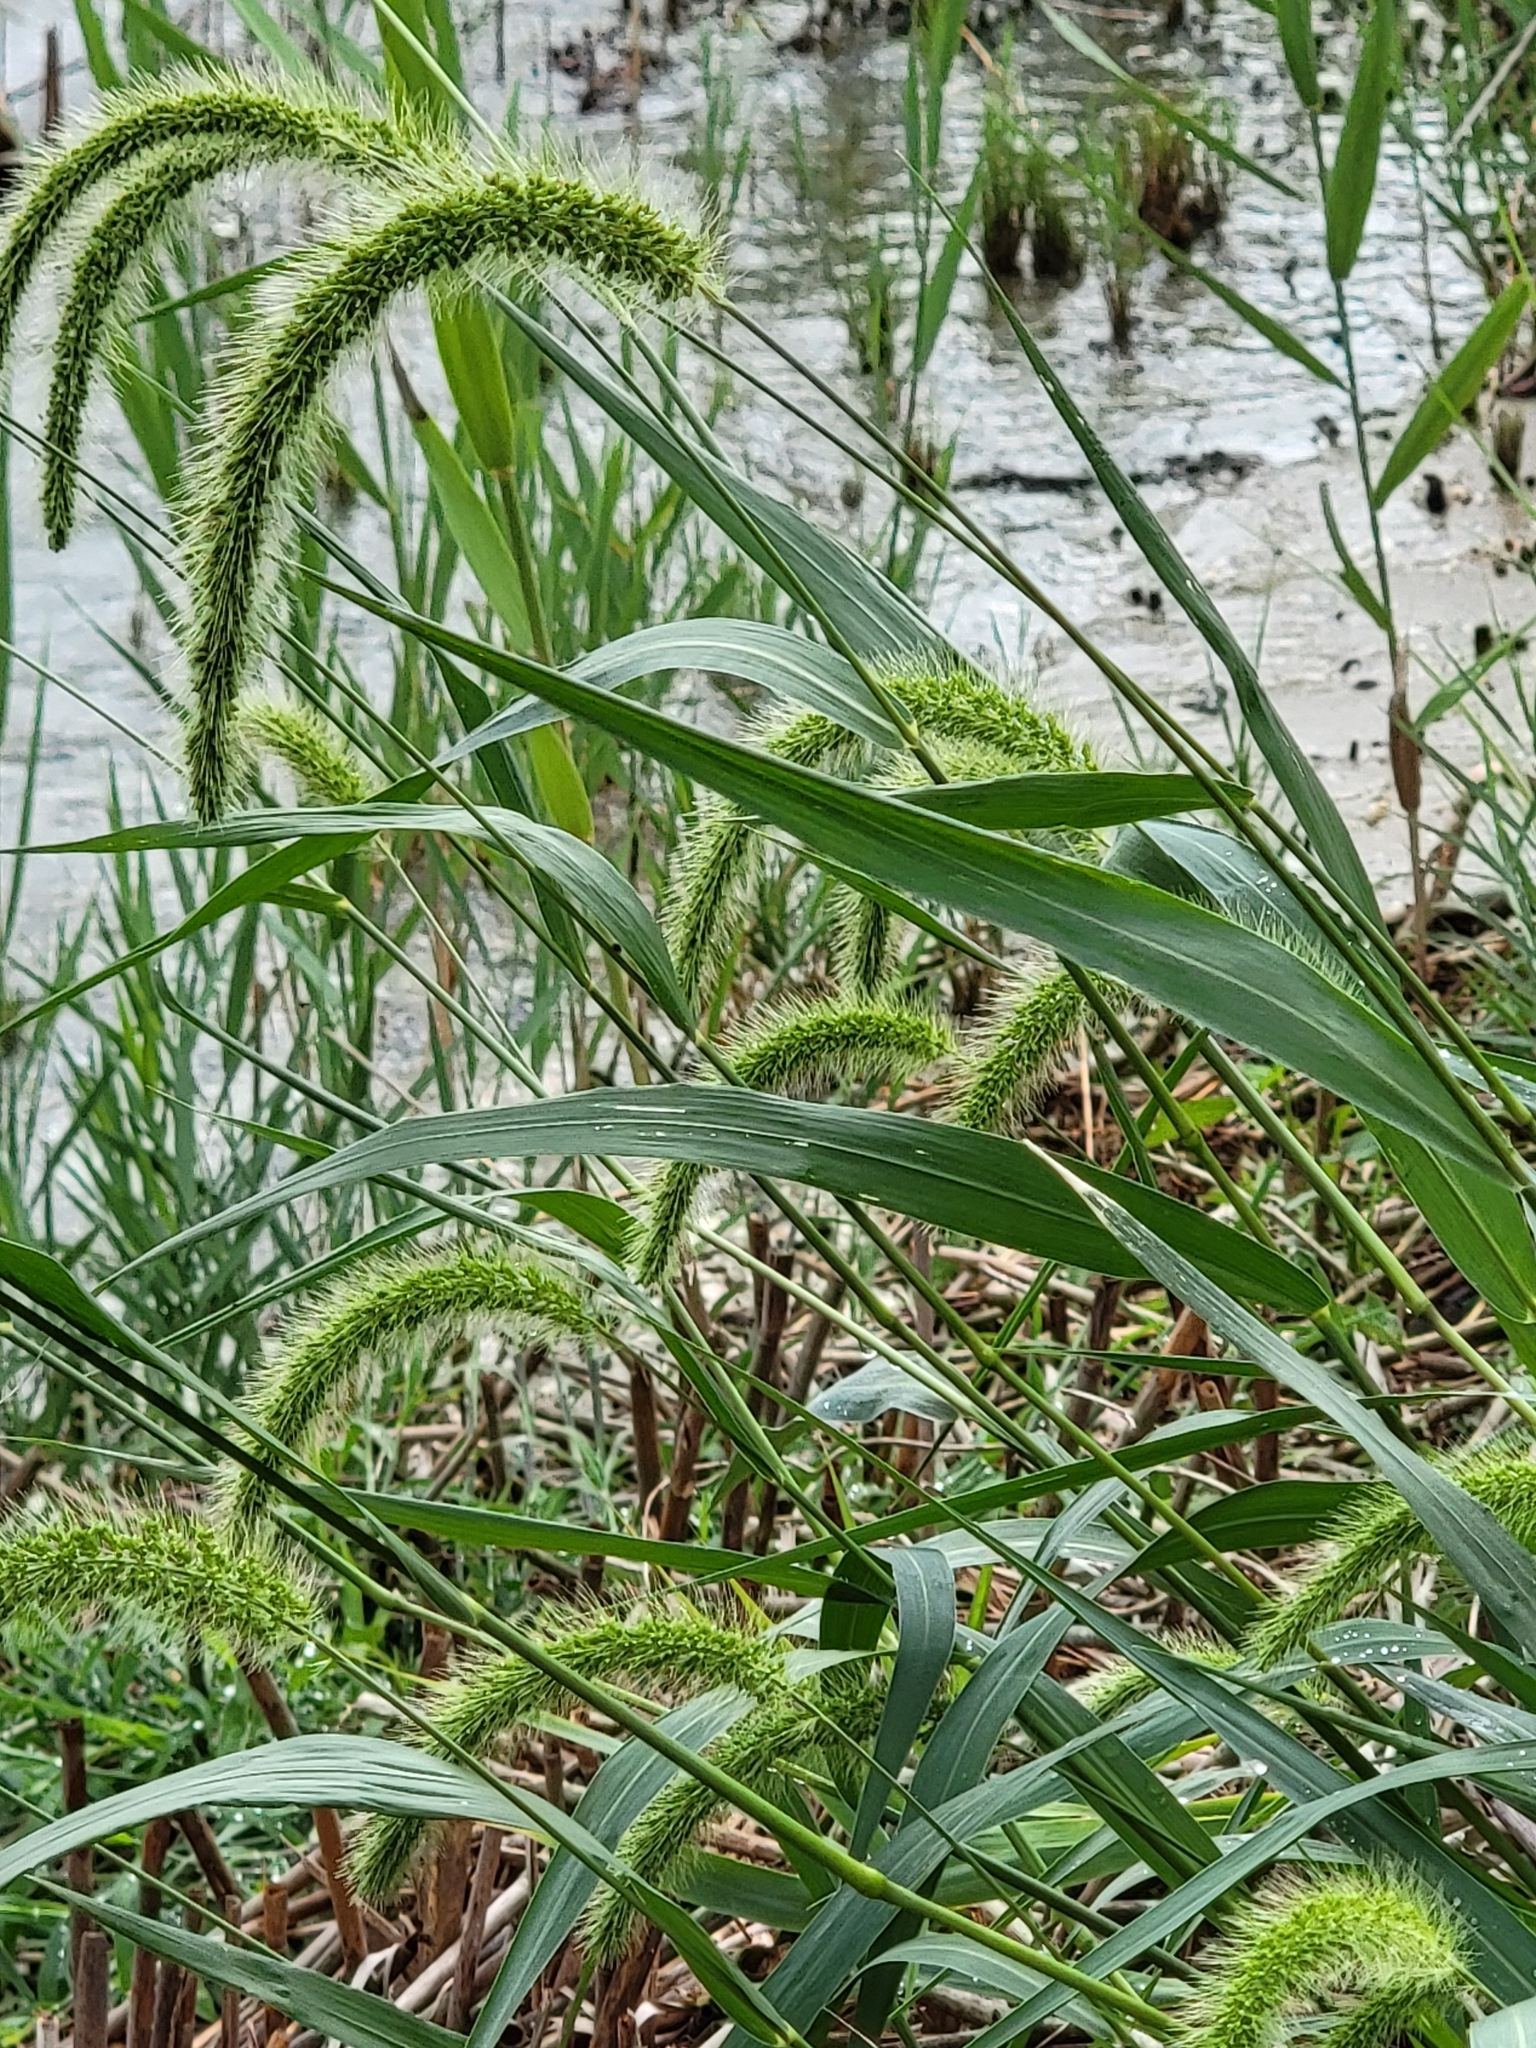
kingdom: Plantae
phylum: Tracheophyta
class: Liliopsida
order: Poales
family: Poaceae
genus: Setaria
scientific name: Setaria faberi
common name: Nodding bristle-grass
